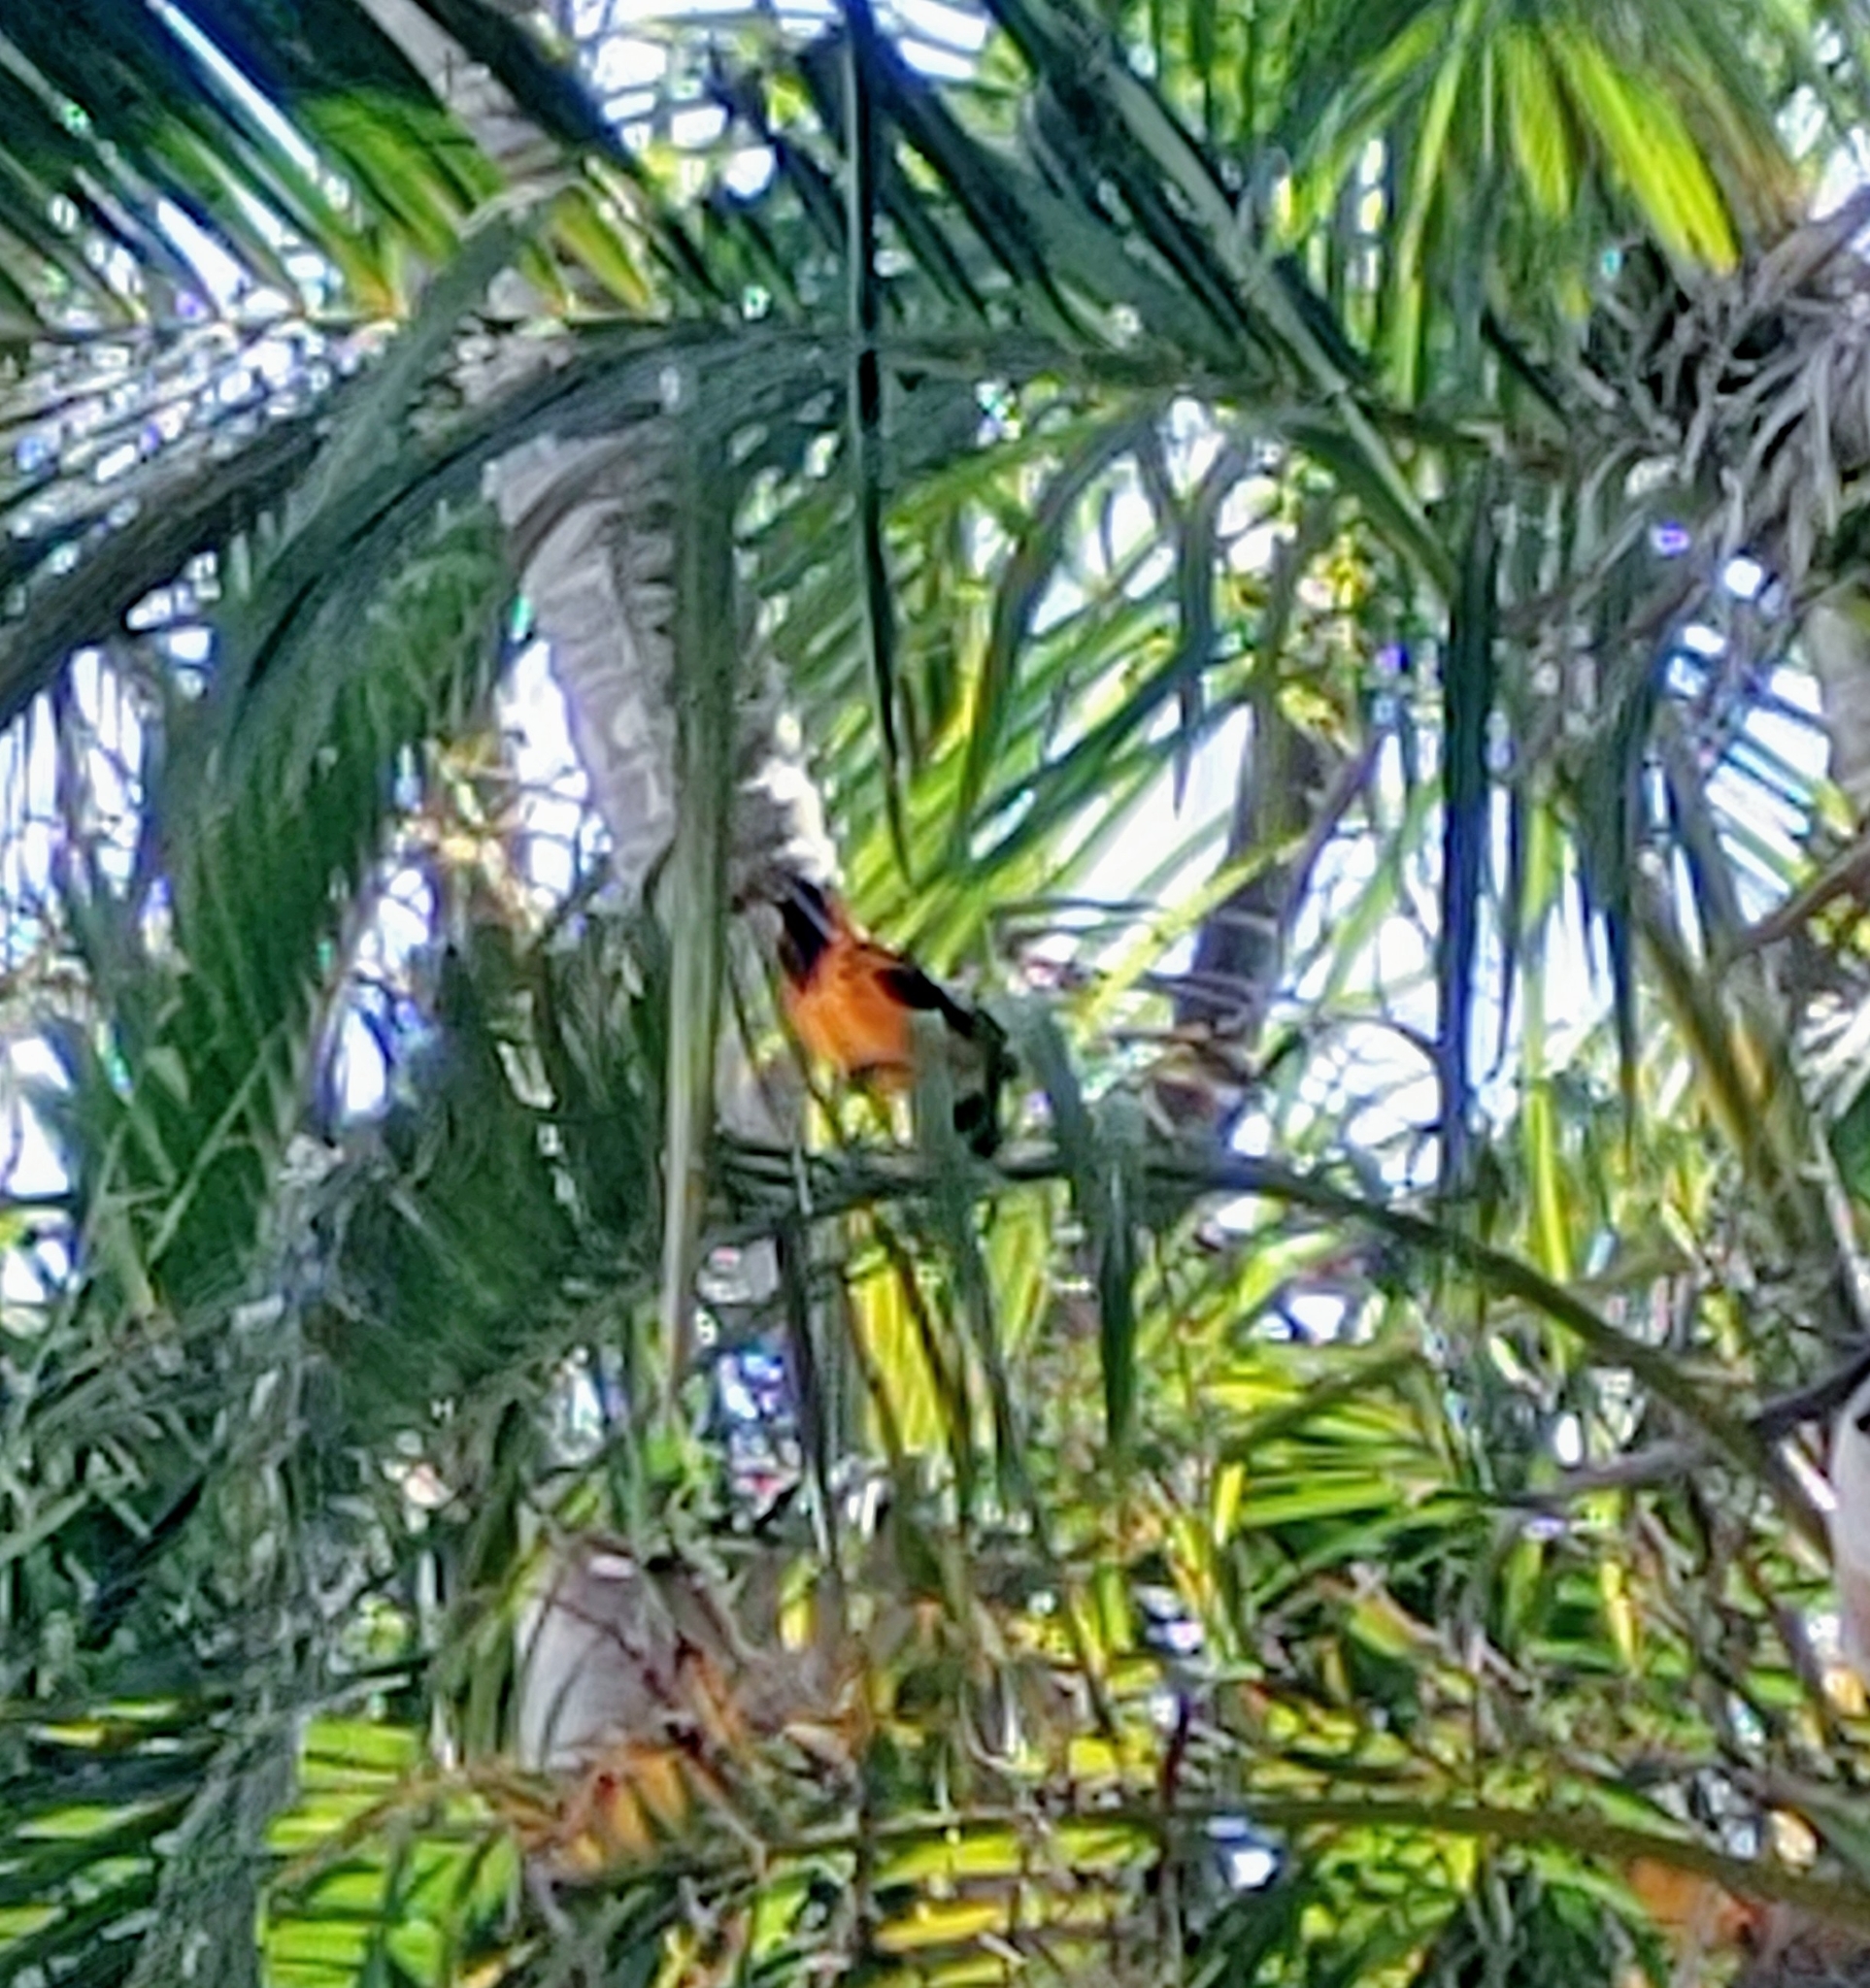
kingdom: Animalia
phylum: Chordata
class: Aves
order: Passeriformes
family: Icteridae
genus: Icterus
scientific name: Icterus pectoralis
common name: Spot-breasted oriole
